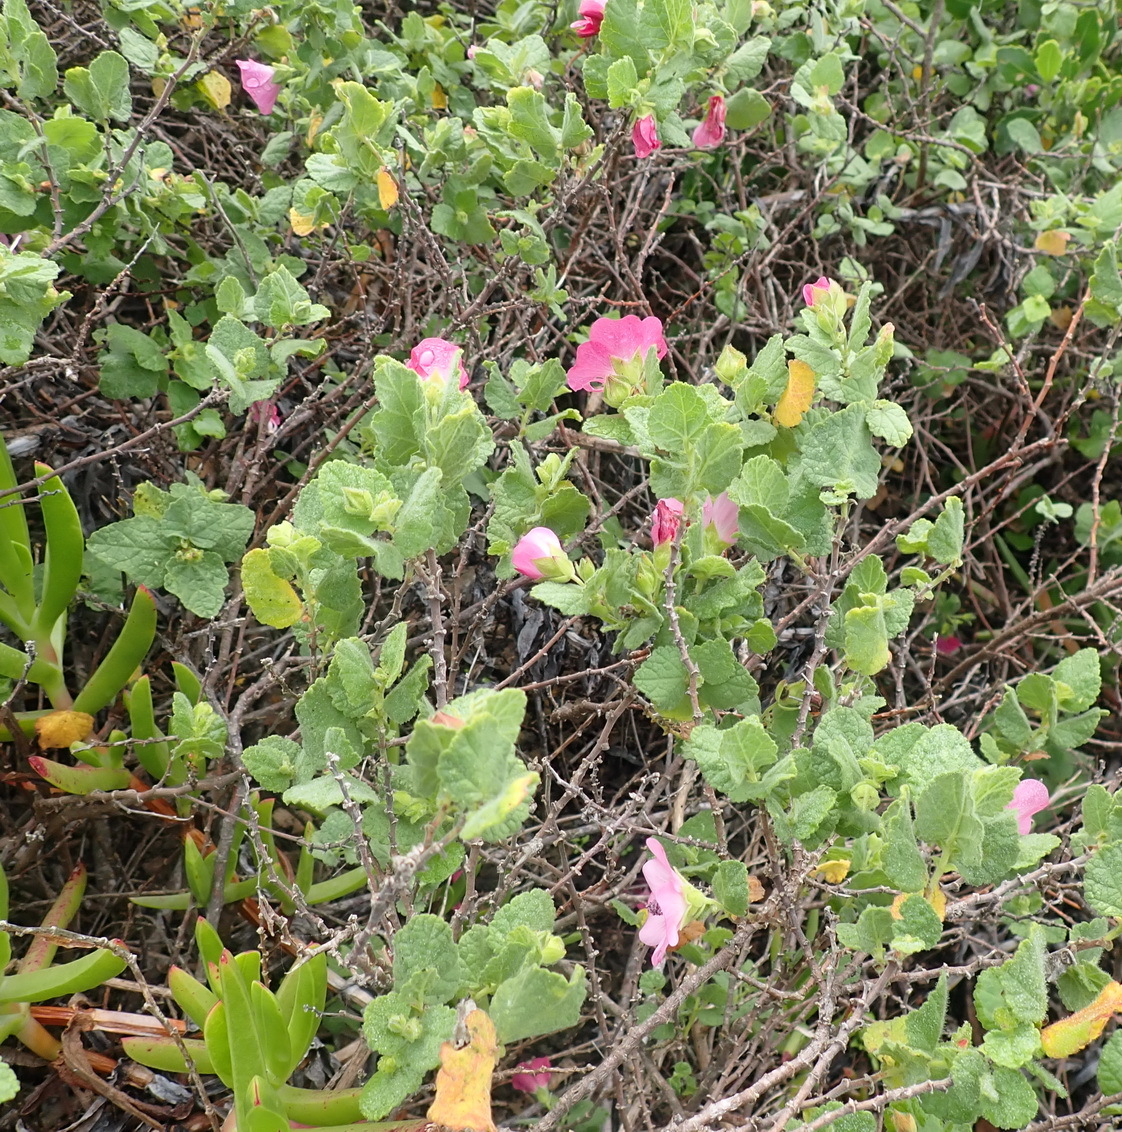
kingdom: Plantae
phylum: Tracheophyta
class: Magnoliopsida
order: Malvales
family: Malvaceae
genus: Anisodontea
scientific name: Anisodontea scabrosa
